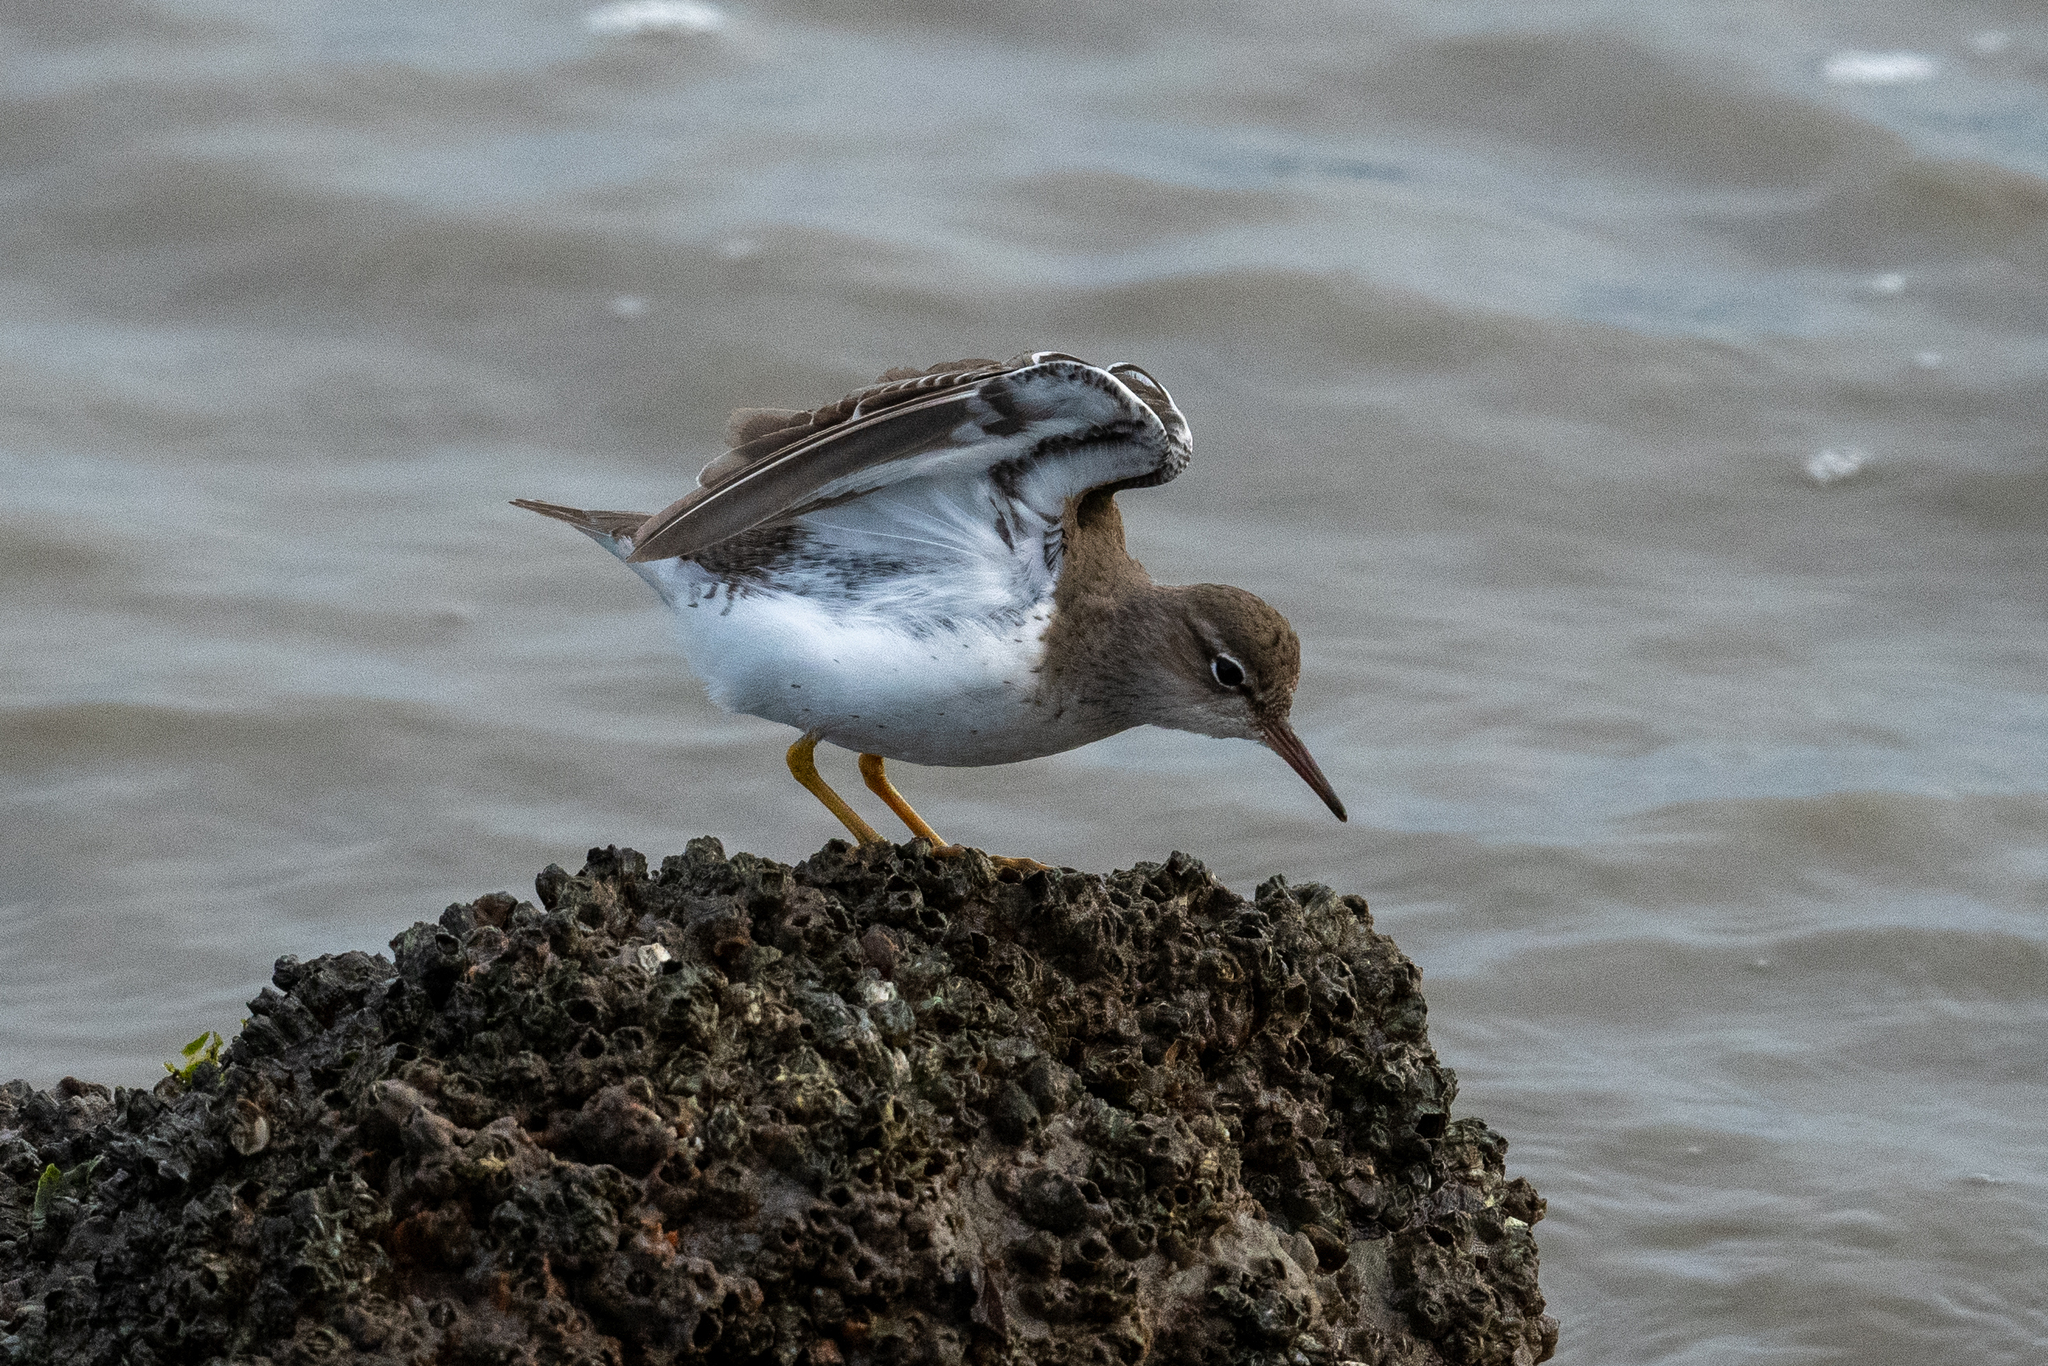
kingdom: Animalia
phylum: Chordata
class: Aves
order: Charadriiformes
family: Scolopacidae
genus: Actitis
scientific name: Actitis macularius
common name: Spotted sandpiper
